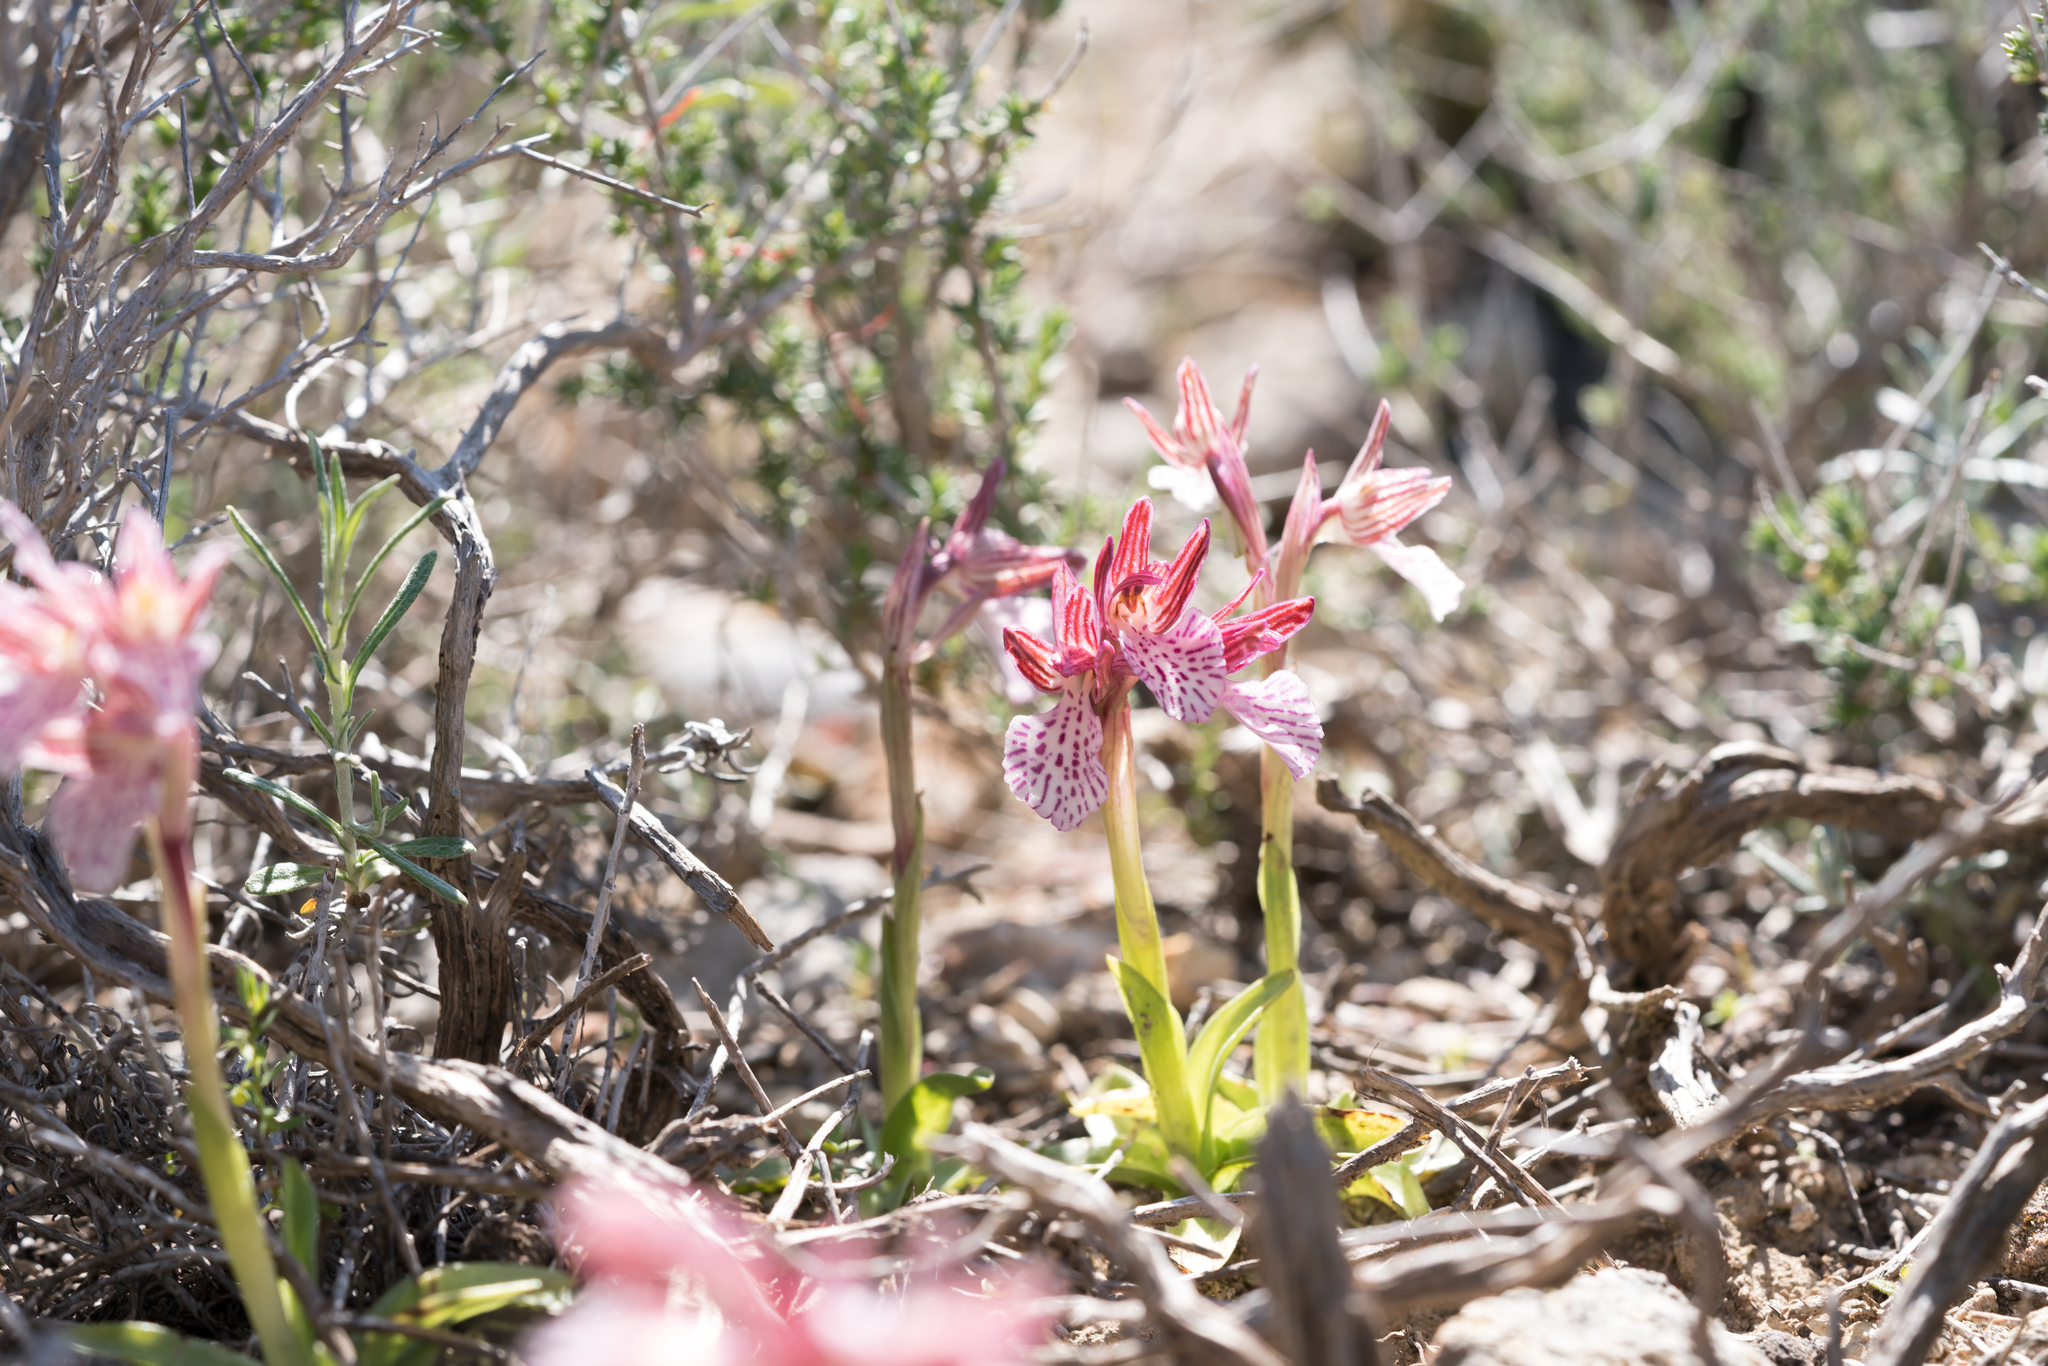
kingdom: Plantae
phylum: Tracheophyta
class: Liliopsida
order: Asparagales
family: Orchidaceae
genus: Anacamptis
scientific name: Anacamptis papilionacea
